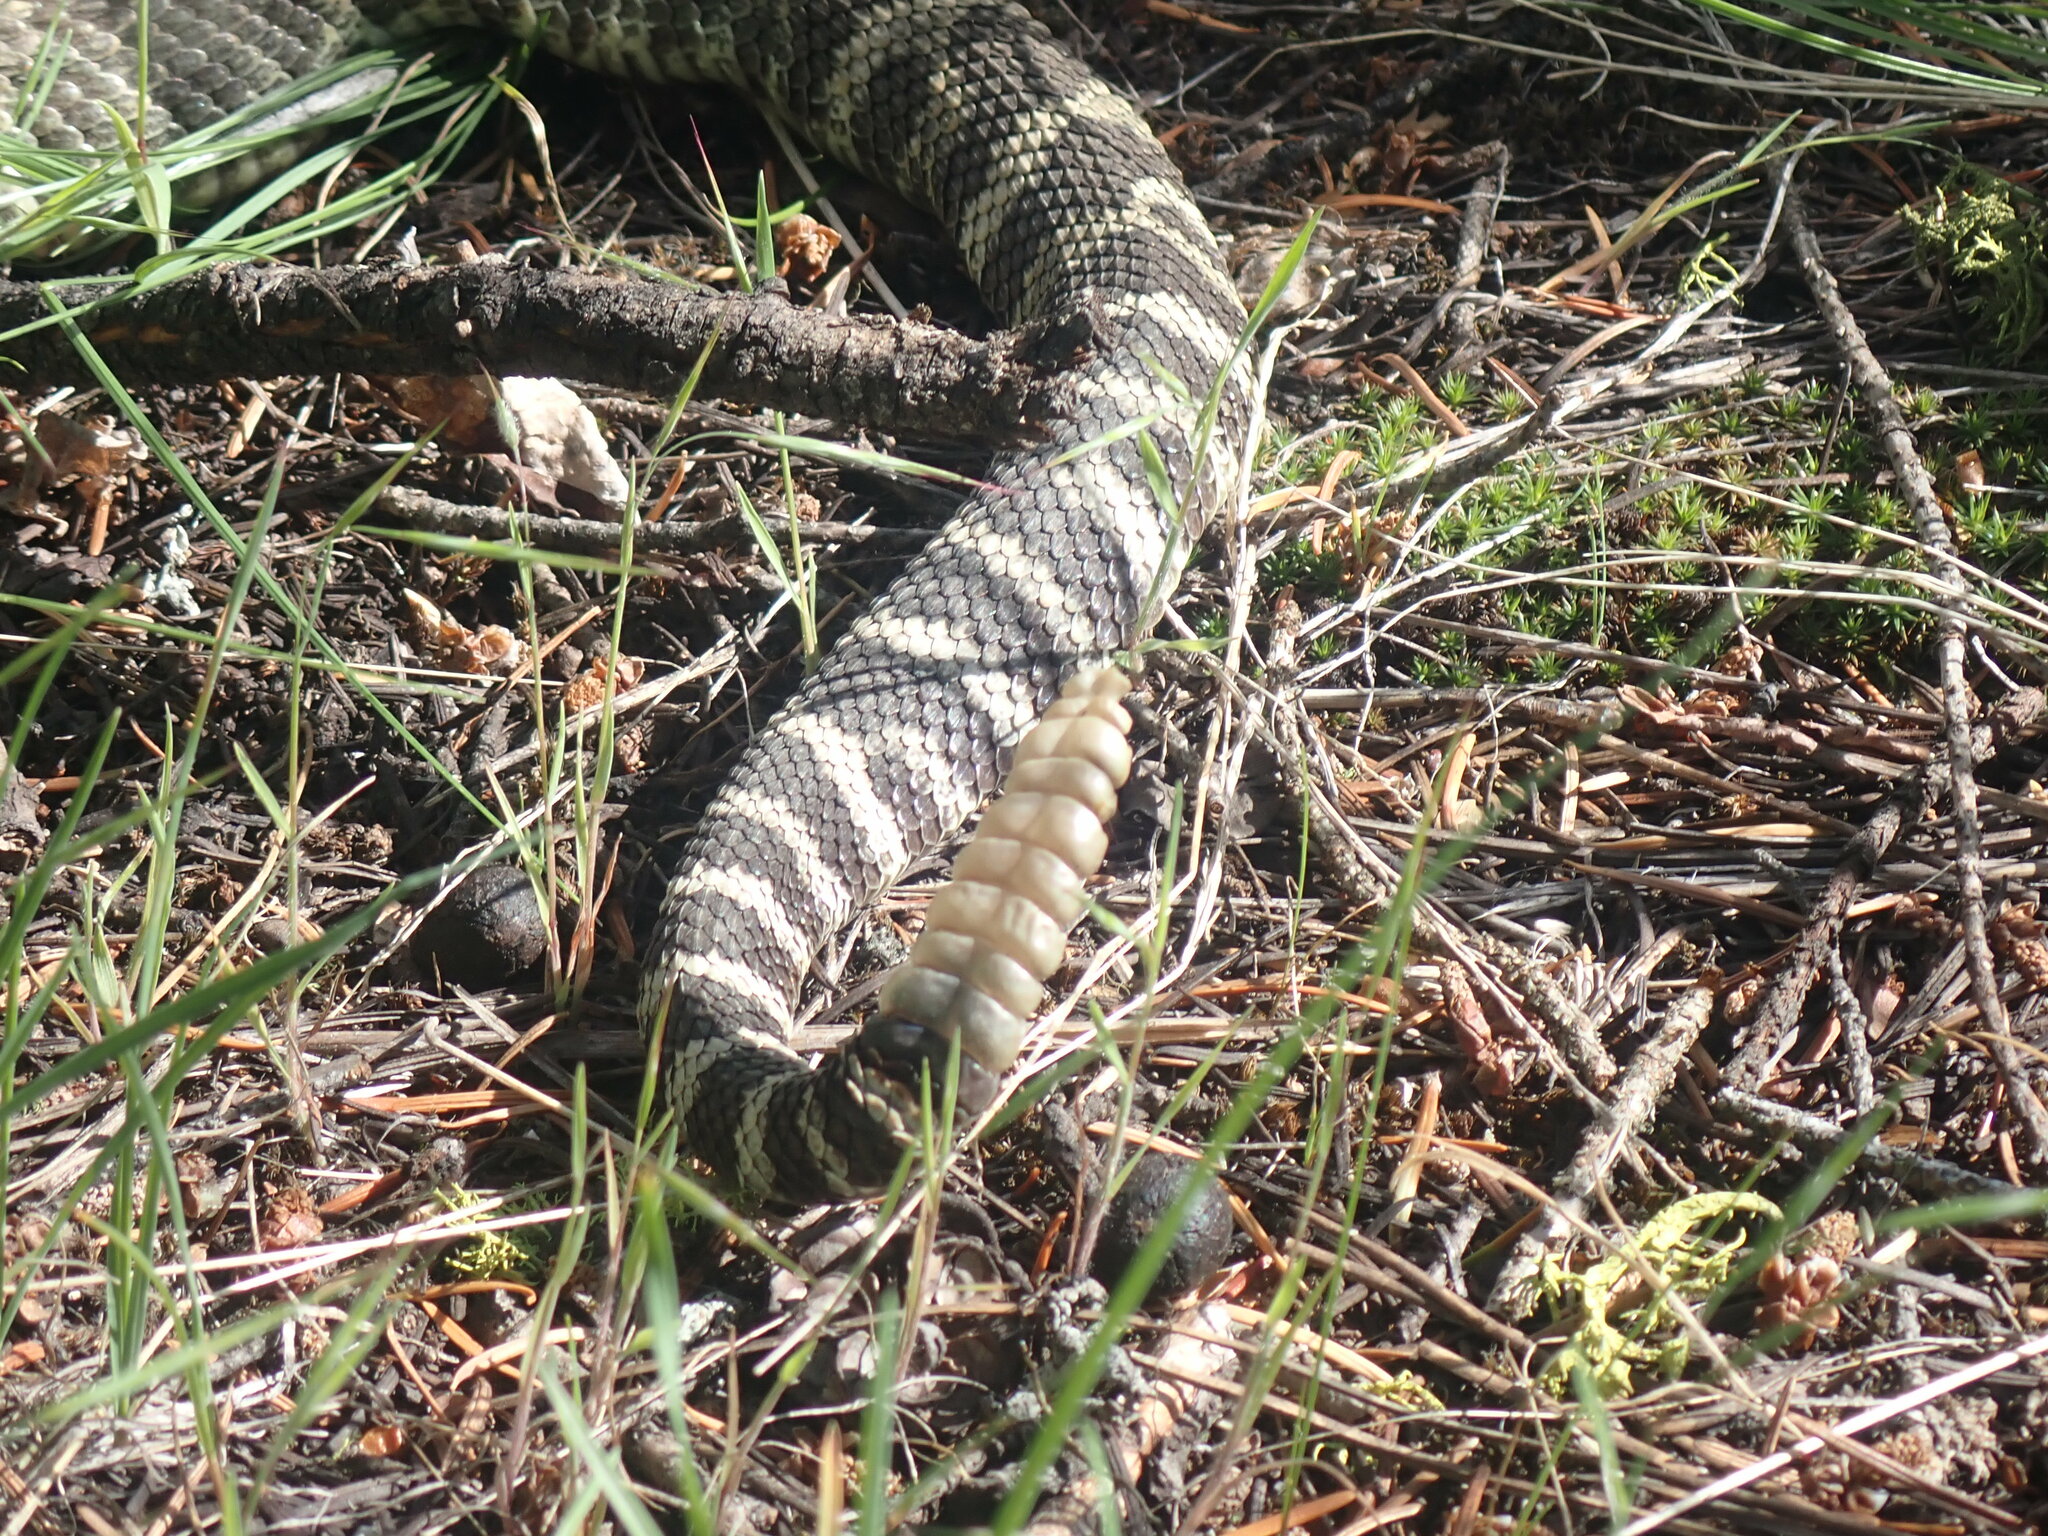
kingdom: Animalia
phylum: Chordata
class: Squamata
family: Viperidae
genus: Crotalus
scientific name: Crotalus oreganus
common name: Abyssus
